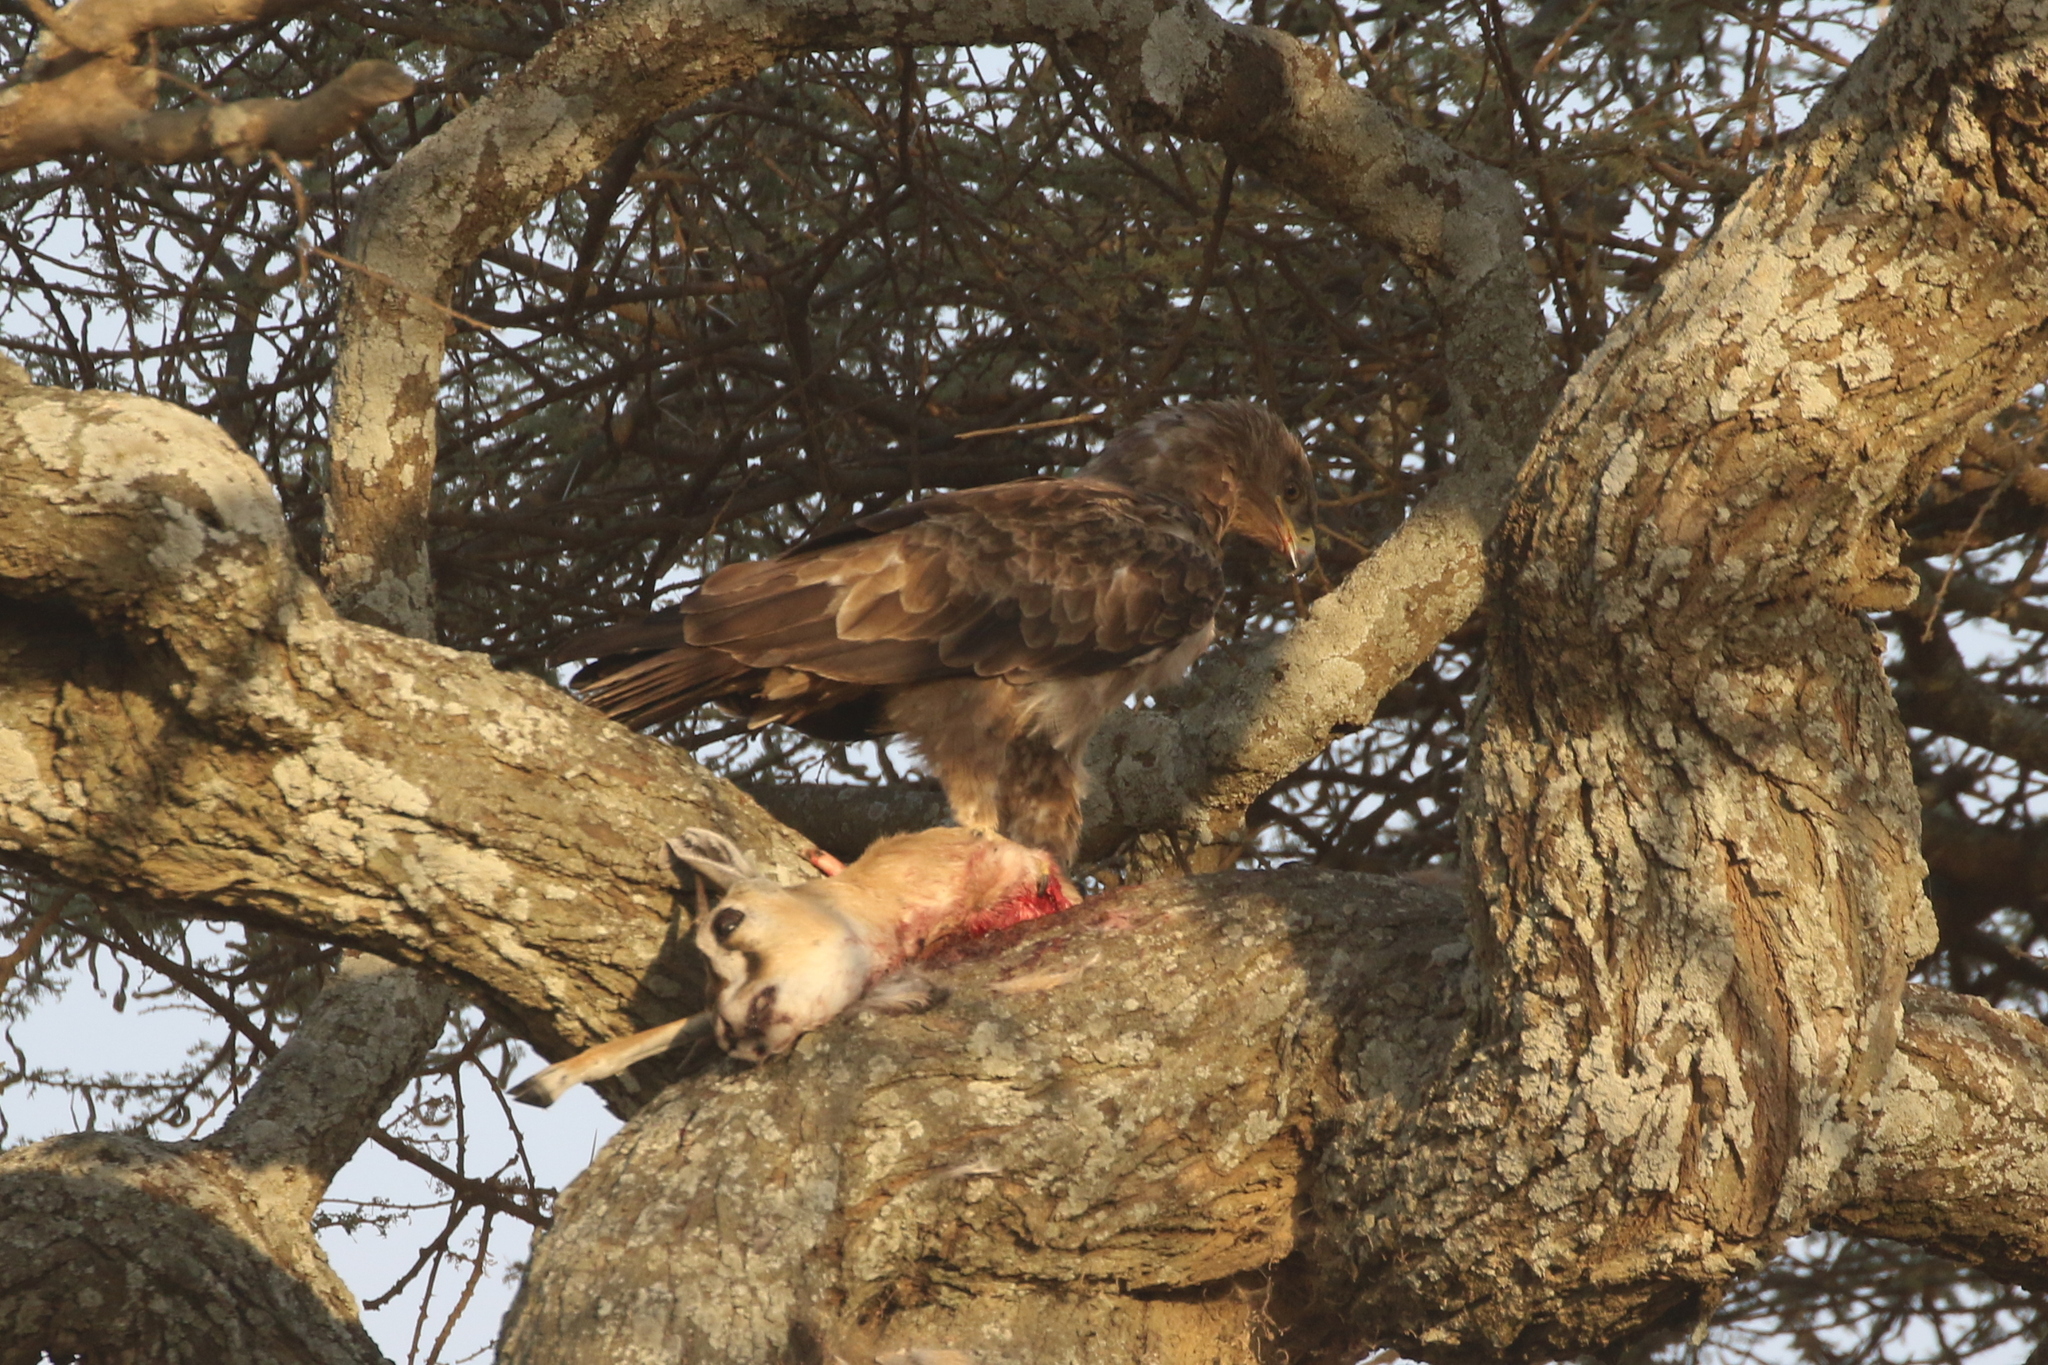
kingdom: Animalia
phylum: Chordata
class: Aves
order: Accipitriformes
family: Accipitridae
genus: Aquila
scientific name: Aquila rapax
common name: Tawny eagle
